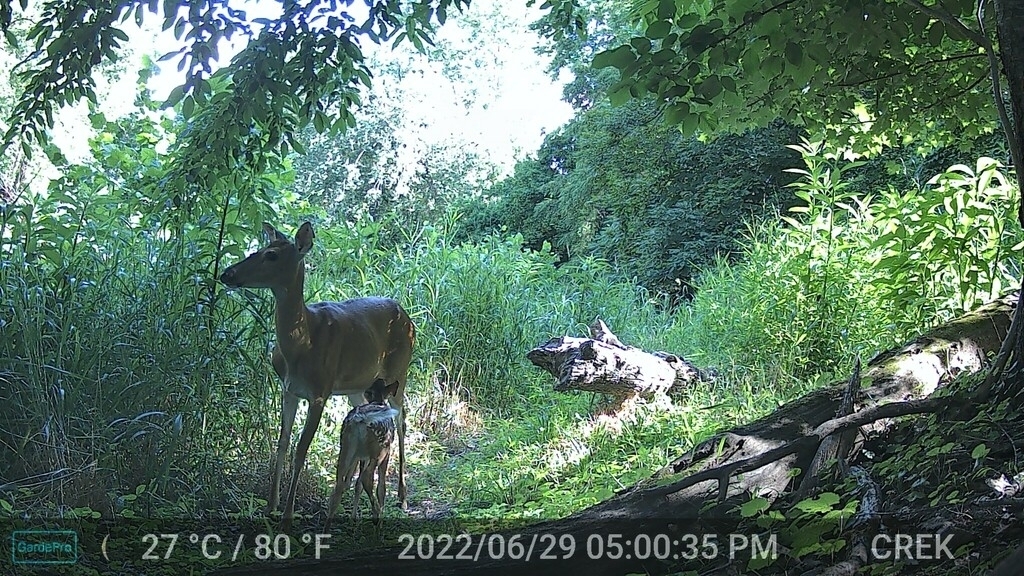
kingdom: Animalia
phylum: Chordata
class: Mammalia
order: Artiodactyla
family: Cervidae
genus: Odocoileus
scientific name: Odocoileus virginianus
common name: White-tailed deer
